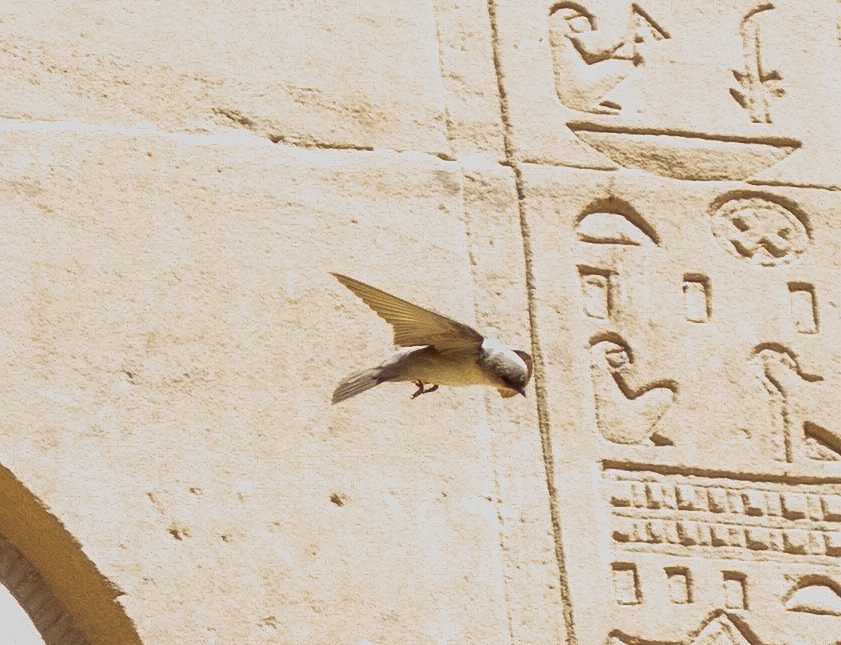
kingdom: Animalia
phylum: Chordata
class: Aves
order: Passeriformes
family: Hirundinidae
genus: Ptyonoprogne
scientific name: Ptyonoprogne fuligula
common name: Rock martin
